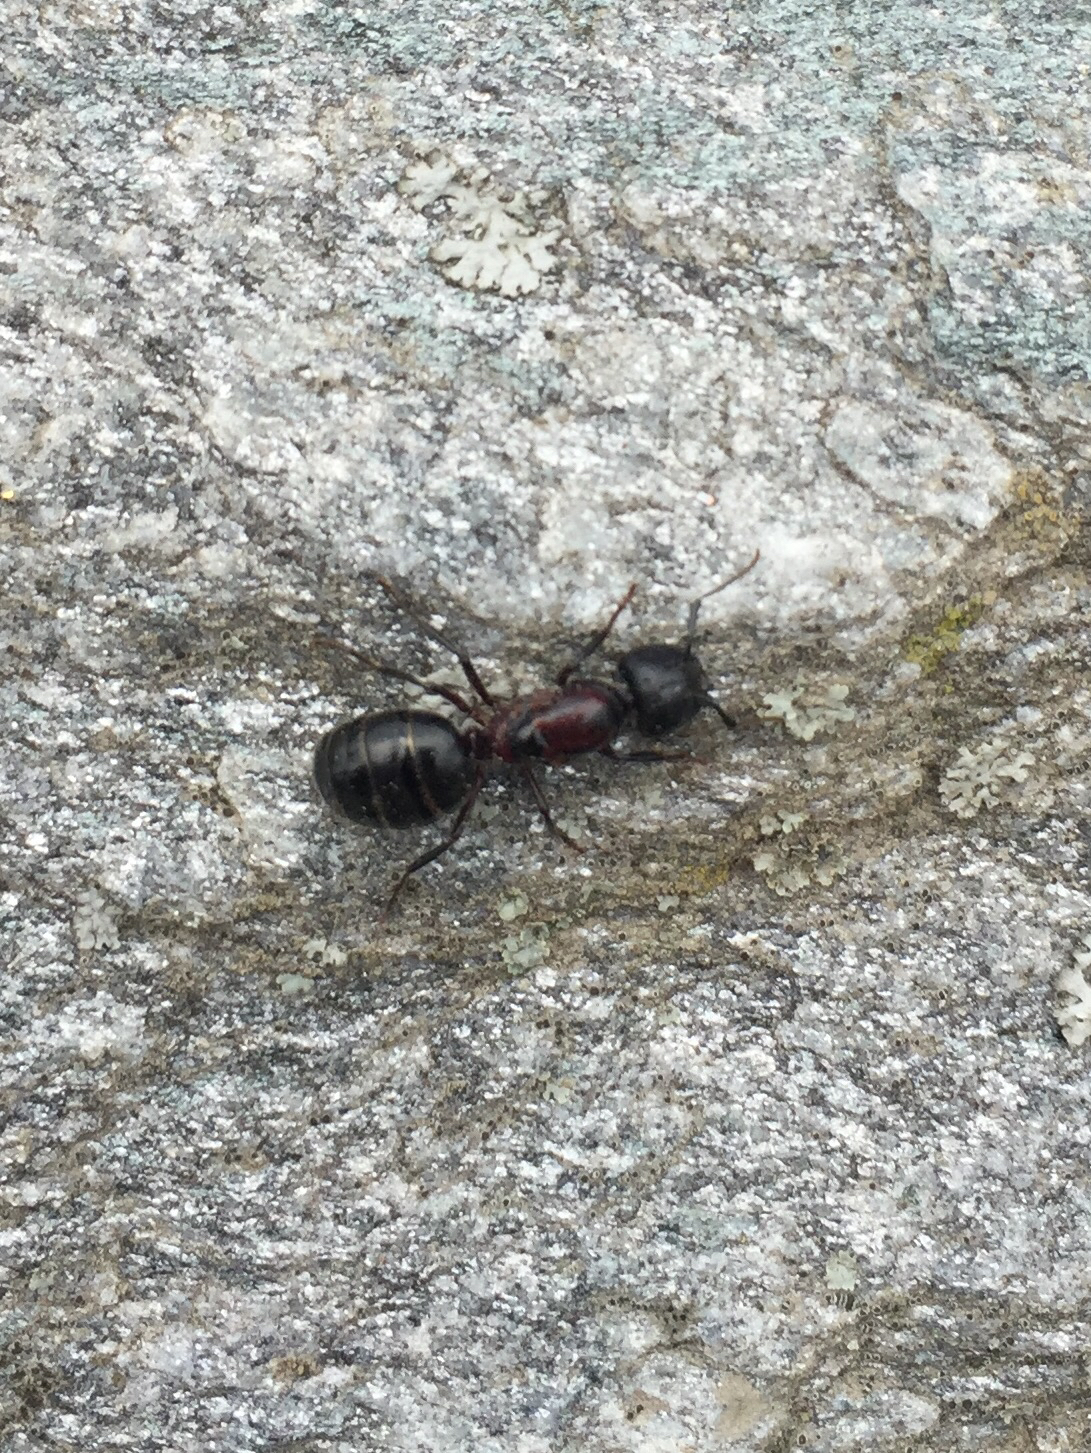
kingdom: Animalia
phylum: Arthropoda
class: Insecta
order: Hymenoptera
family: Formicidae
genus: Camponotus
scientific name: Camponotus novaeboracensis
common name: New york carpenter ant
